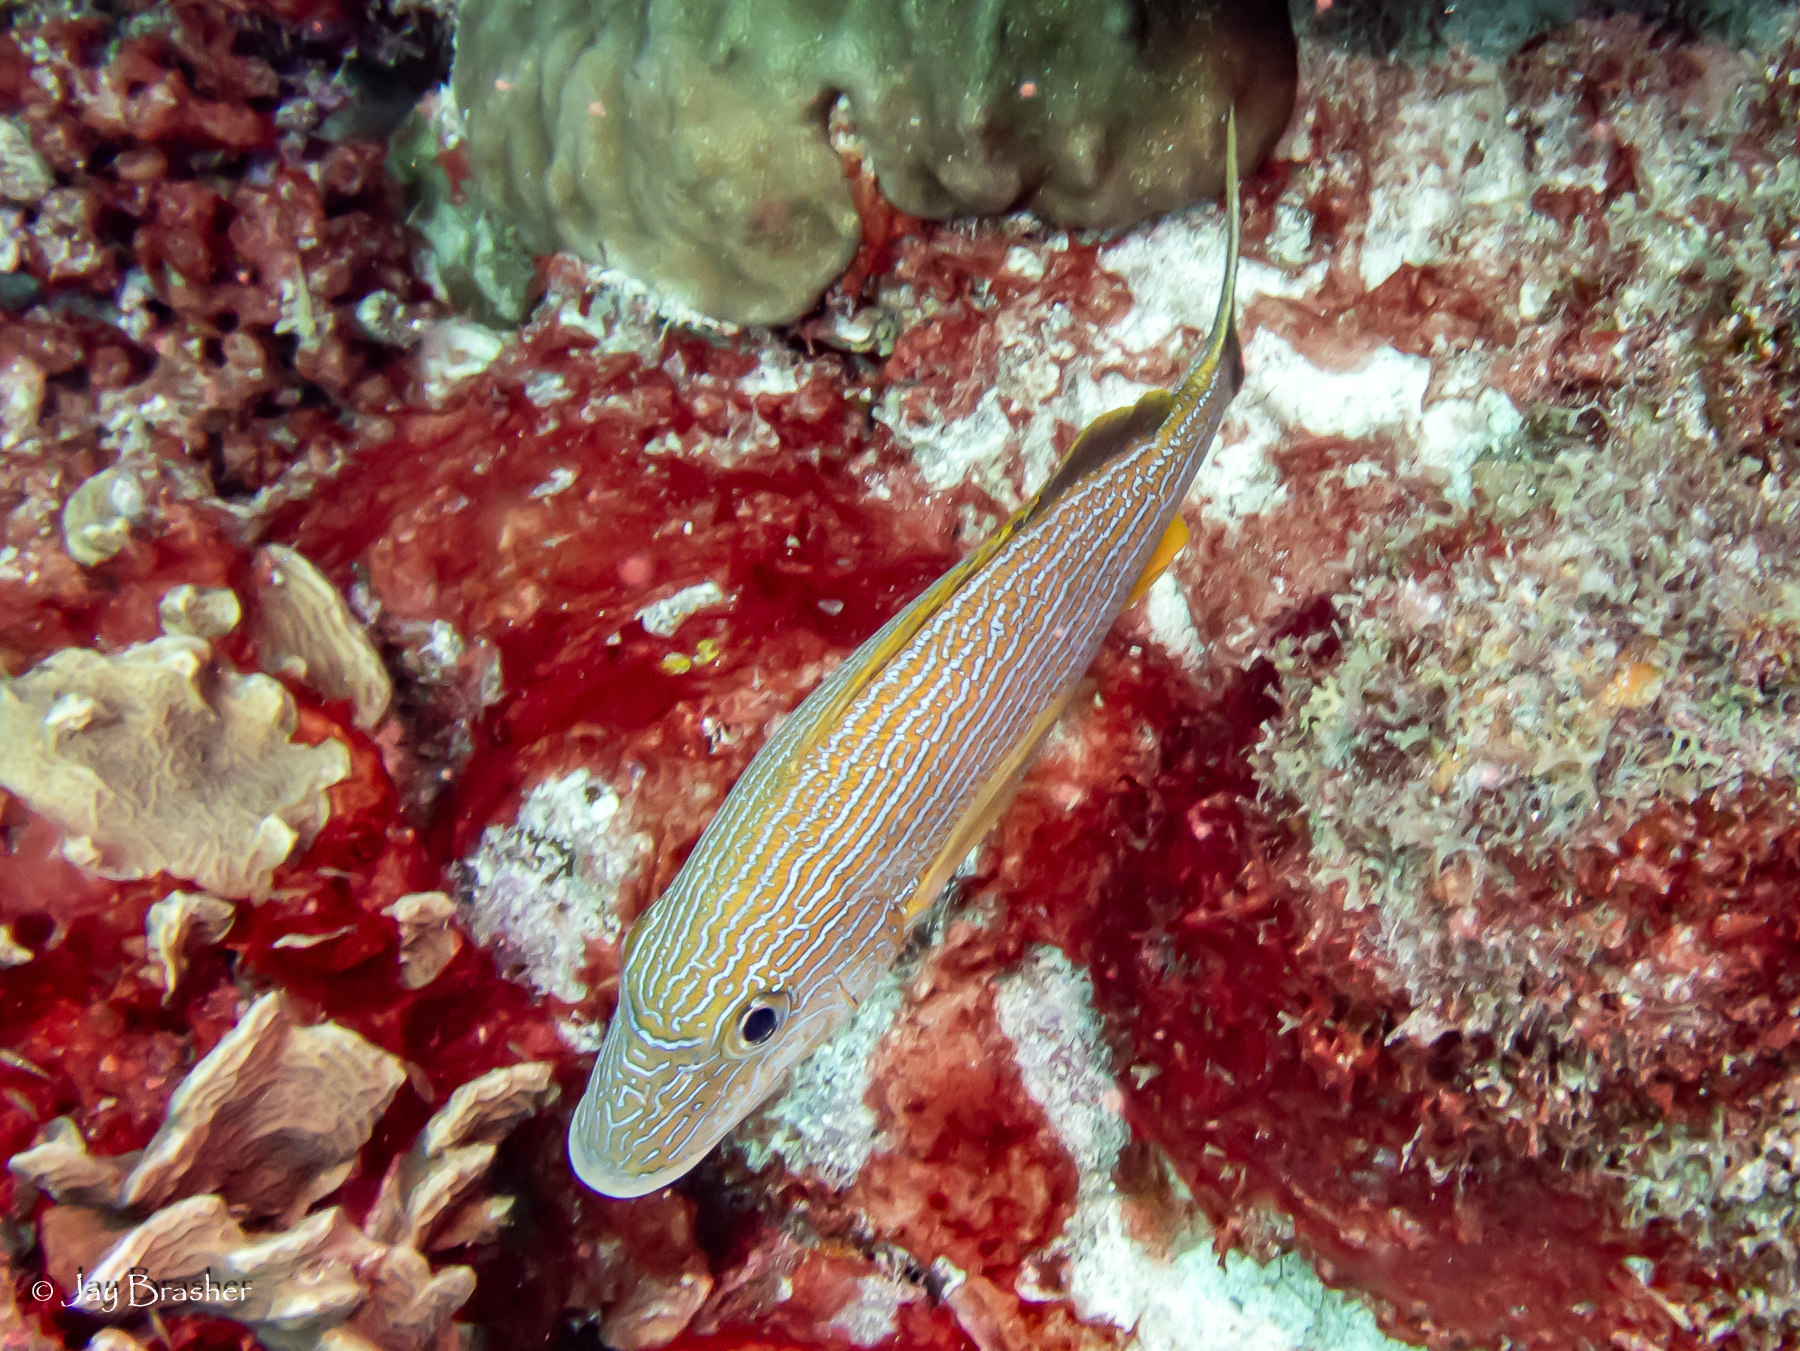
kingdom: Animalia
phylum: Chordata
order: Perciformes
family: Haemulidae
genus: Haemulon
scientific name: Haemulon sciurus
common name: Bluestriped grunt
